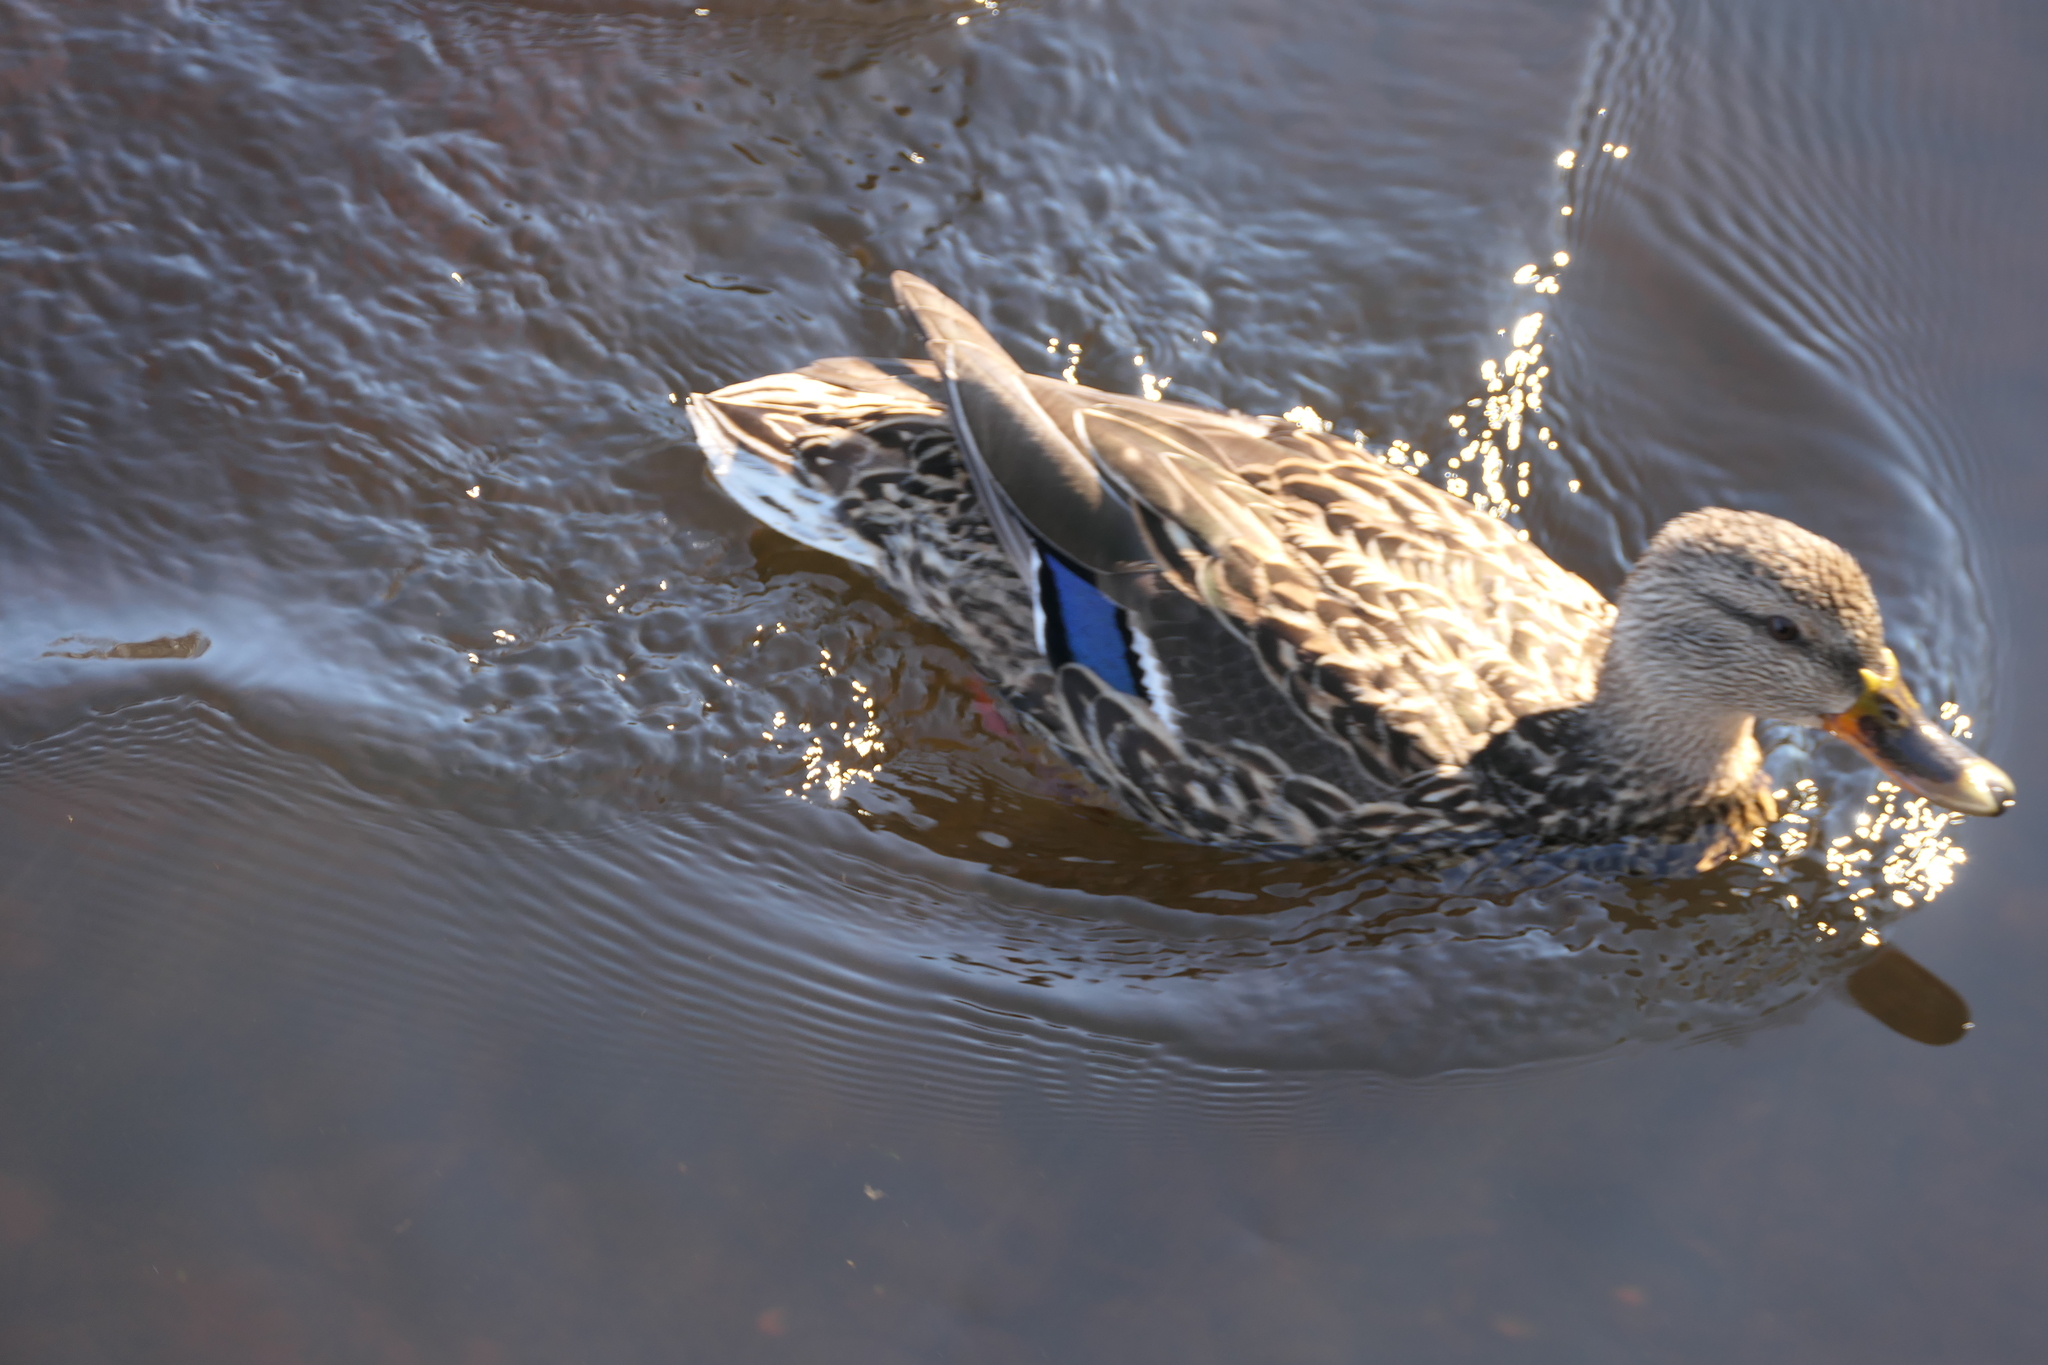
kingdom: Animalia
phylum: Chordata
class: Aves
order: Anseriformes
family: Anatidae
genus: Anas
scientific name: Anas platyrhynchos
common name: Mallard
